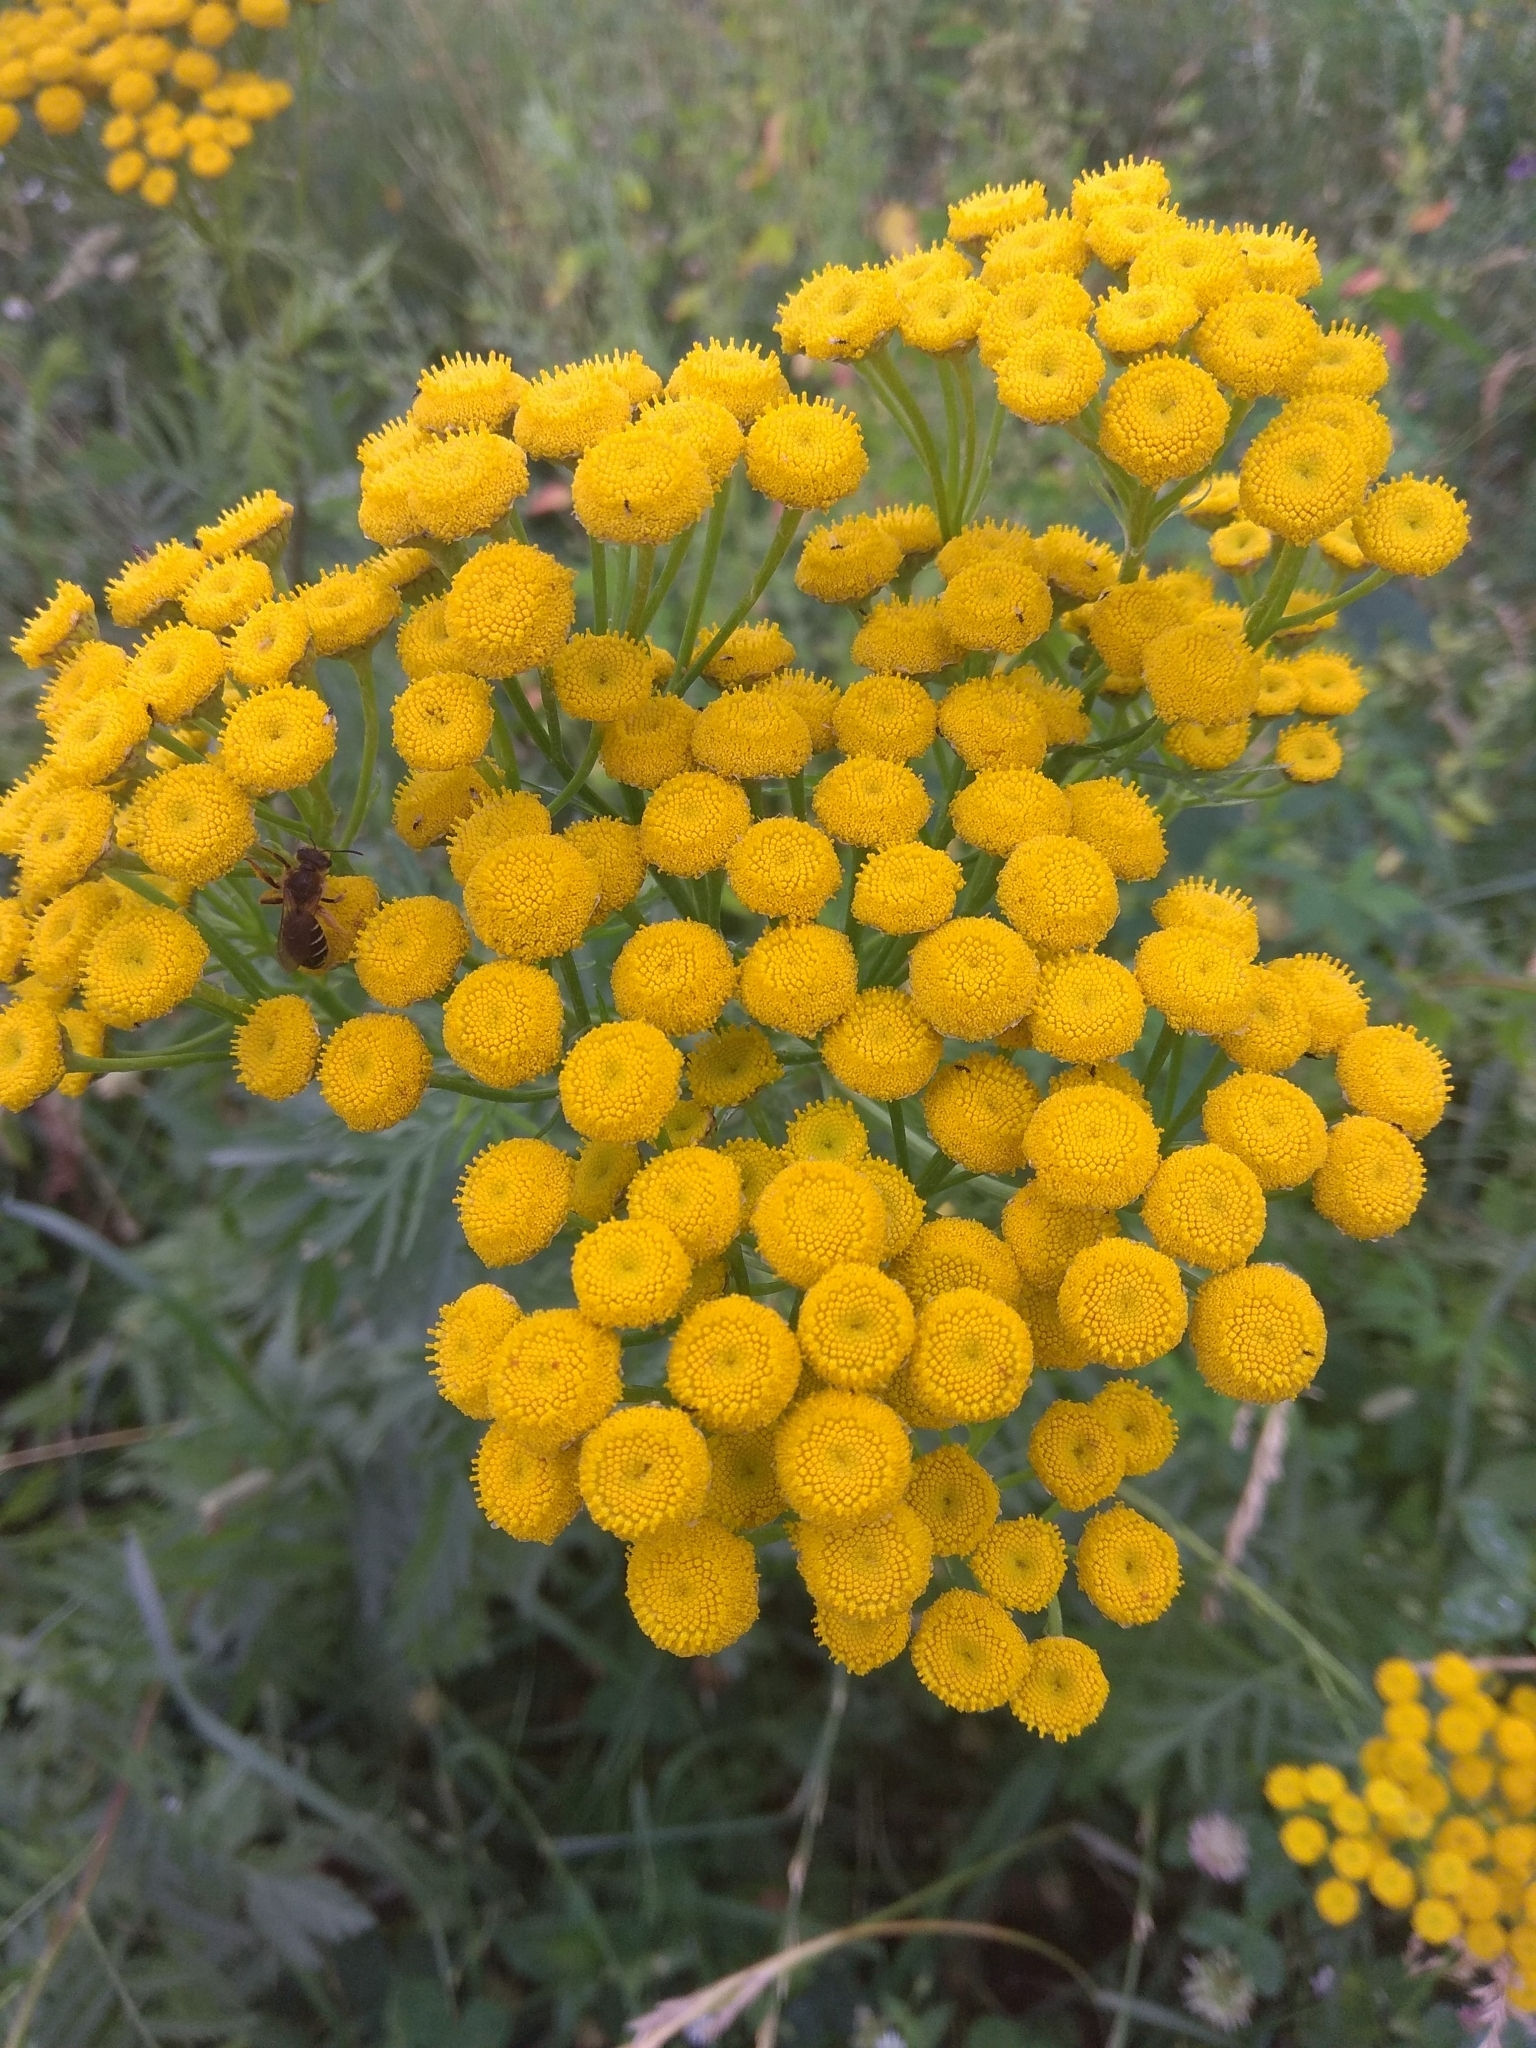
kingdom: Plantae
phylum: Tracheophyta
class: Magnoliopsida
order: Asterales
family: Asteraceae
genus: Tanacetum
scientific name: Tanacetum vulgare
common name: Common tansy
